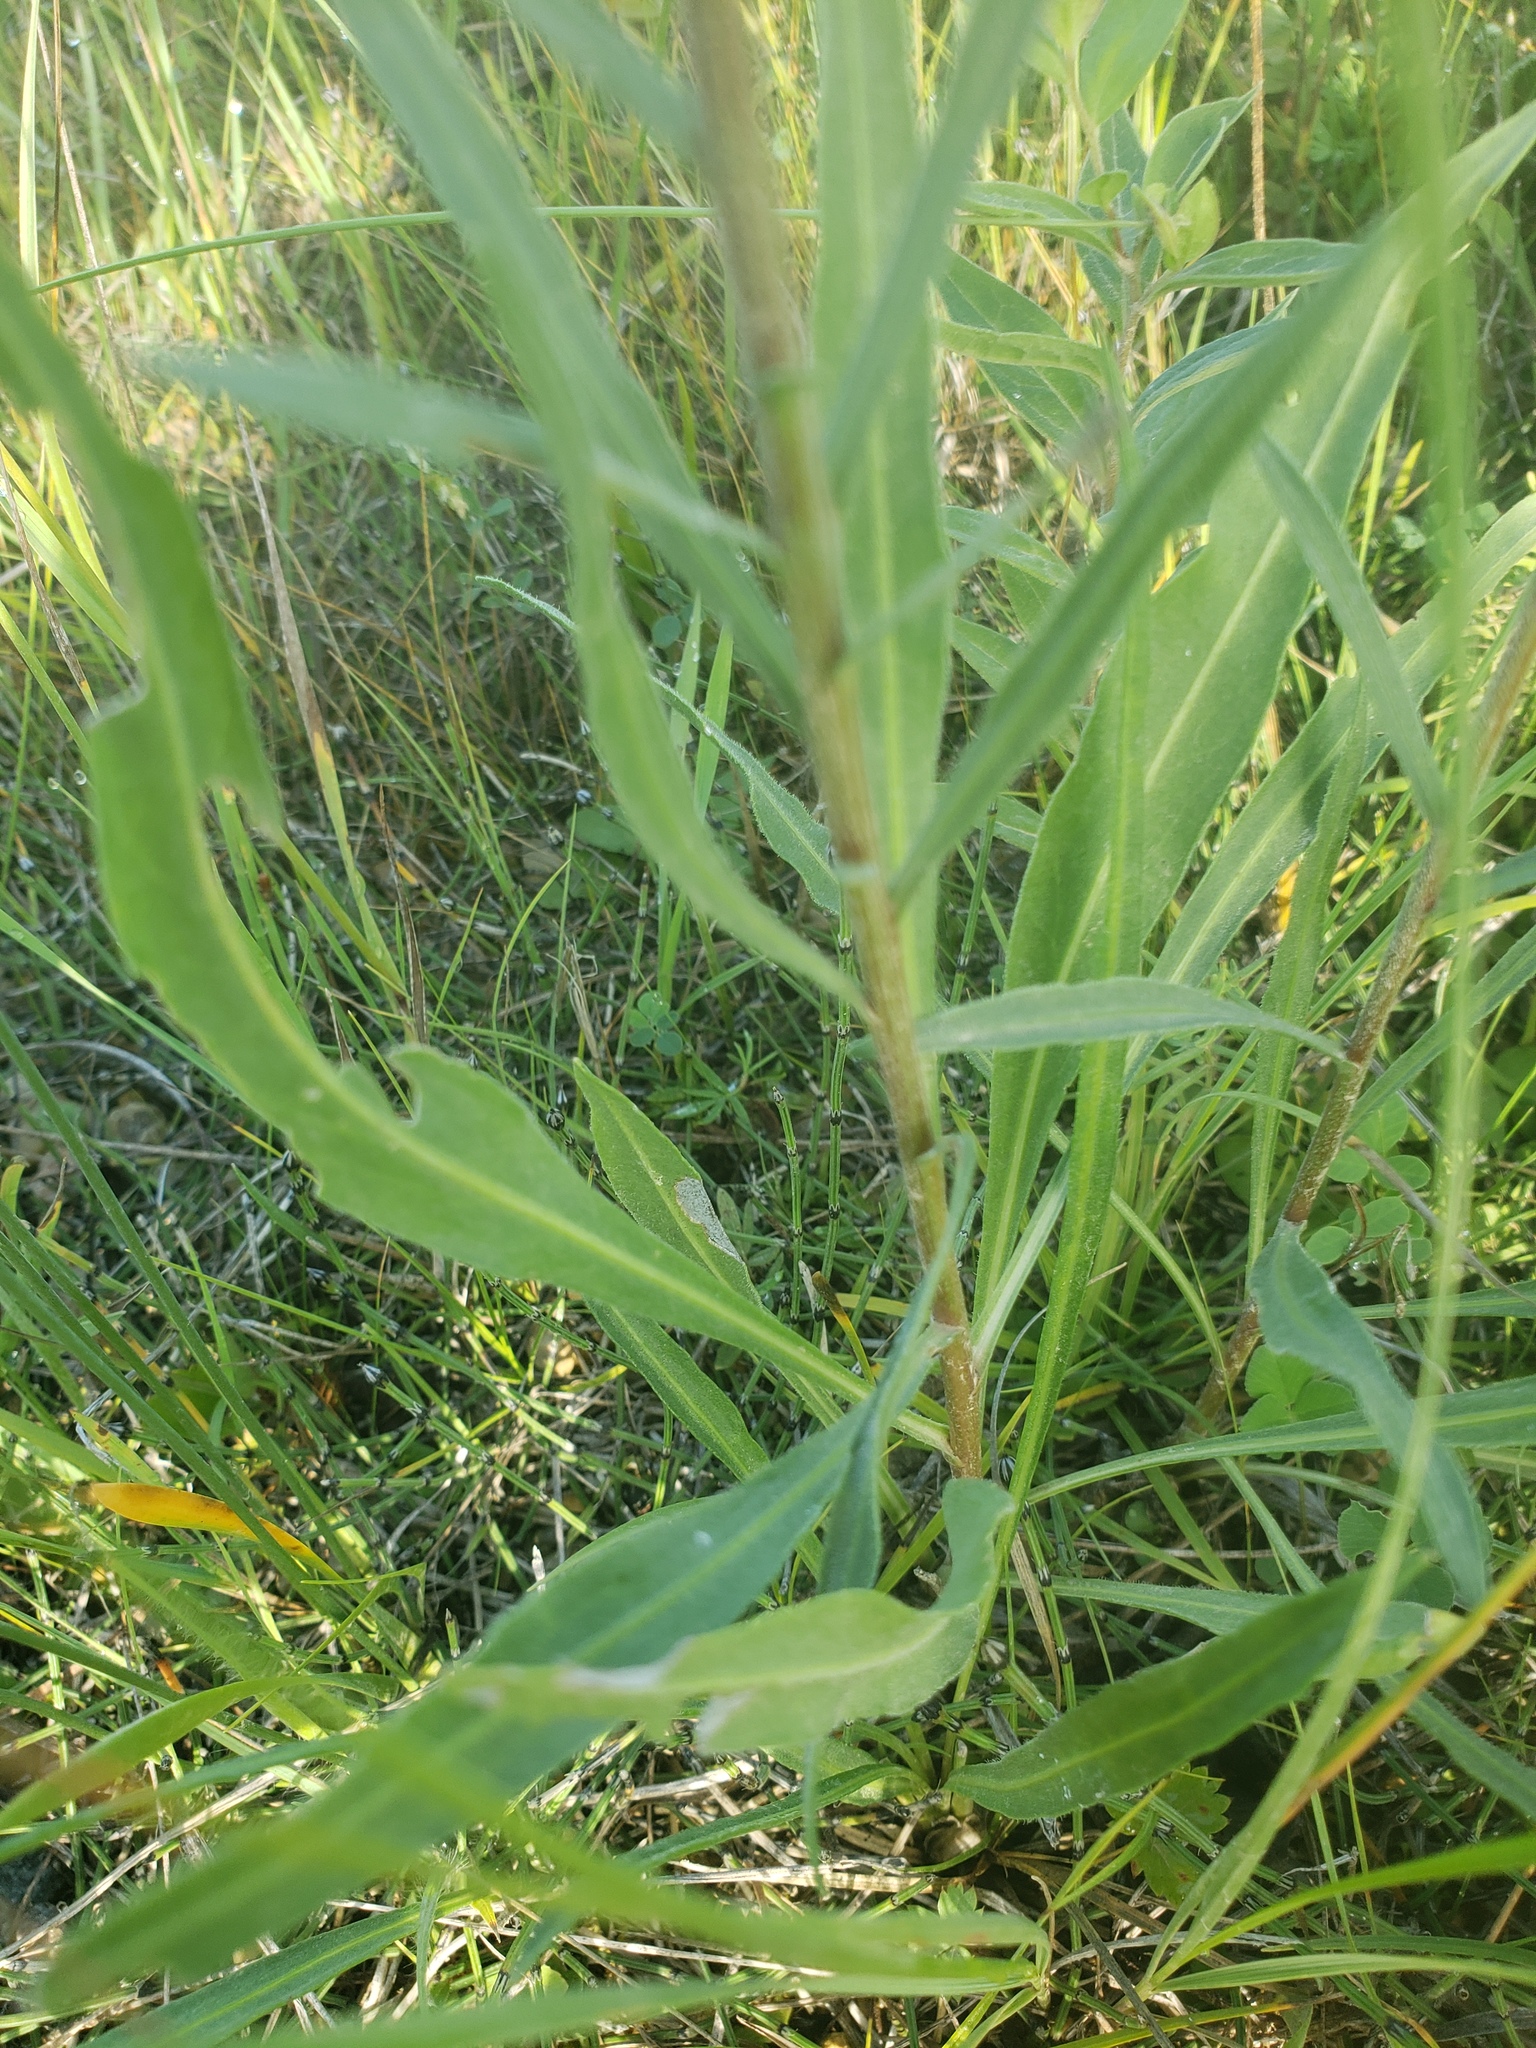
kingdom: Plantae
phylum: Tracheophyta
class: Magnoliopsida
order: Asterales
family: Asteraceae
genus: Liatris
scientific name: Liatris ligulistylis
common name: Northern plains gayfeather
